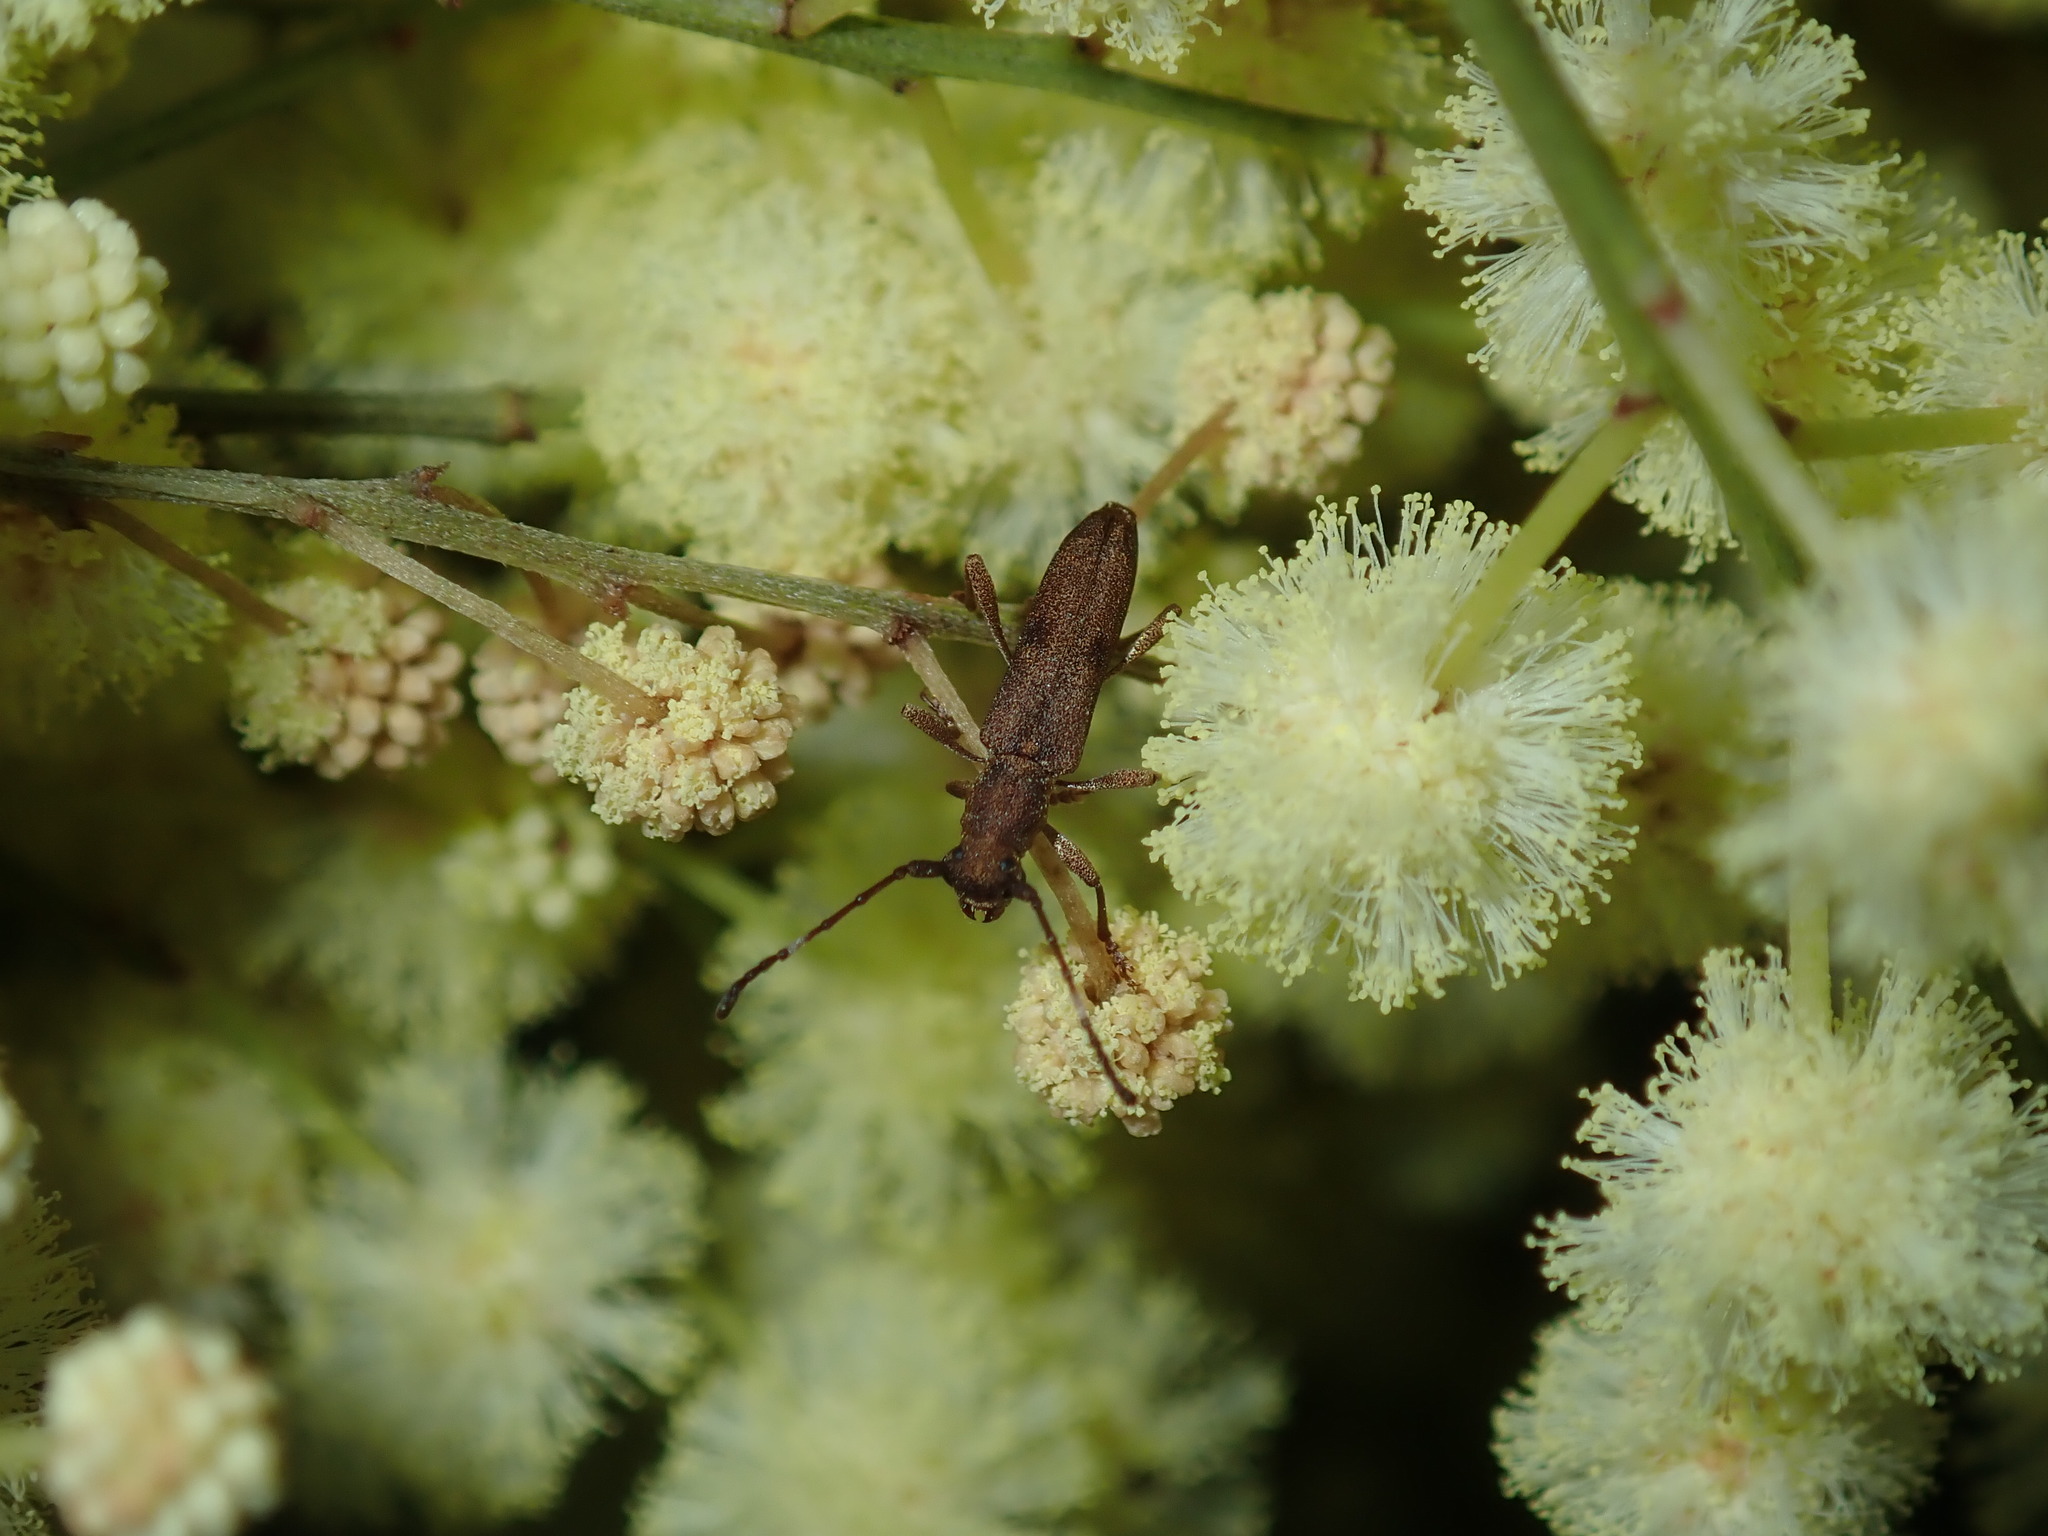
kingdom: Animalia
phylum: Arthropoda
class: Insecta
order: Coleoptera
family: Cerambycidae
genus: Pempsamacra
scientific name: Pempsamacra tillides
